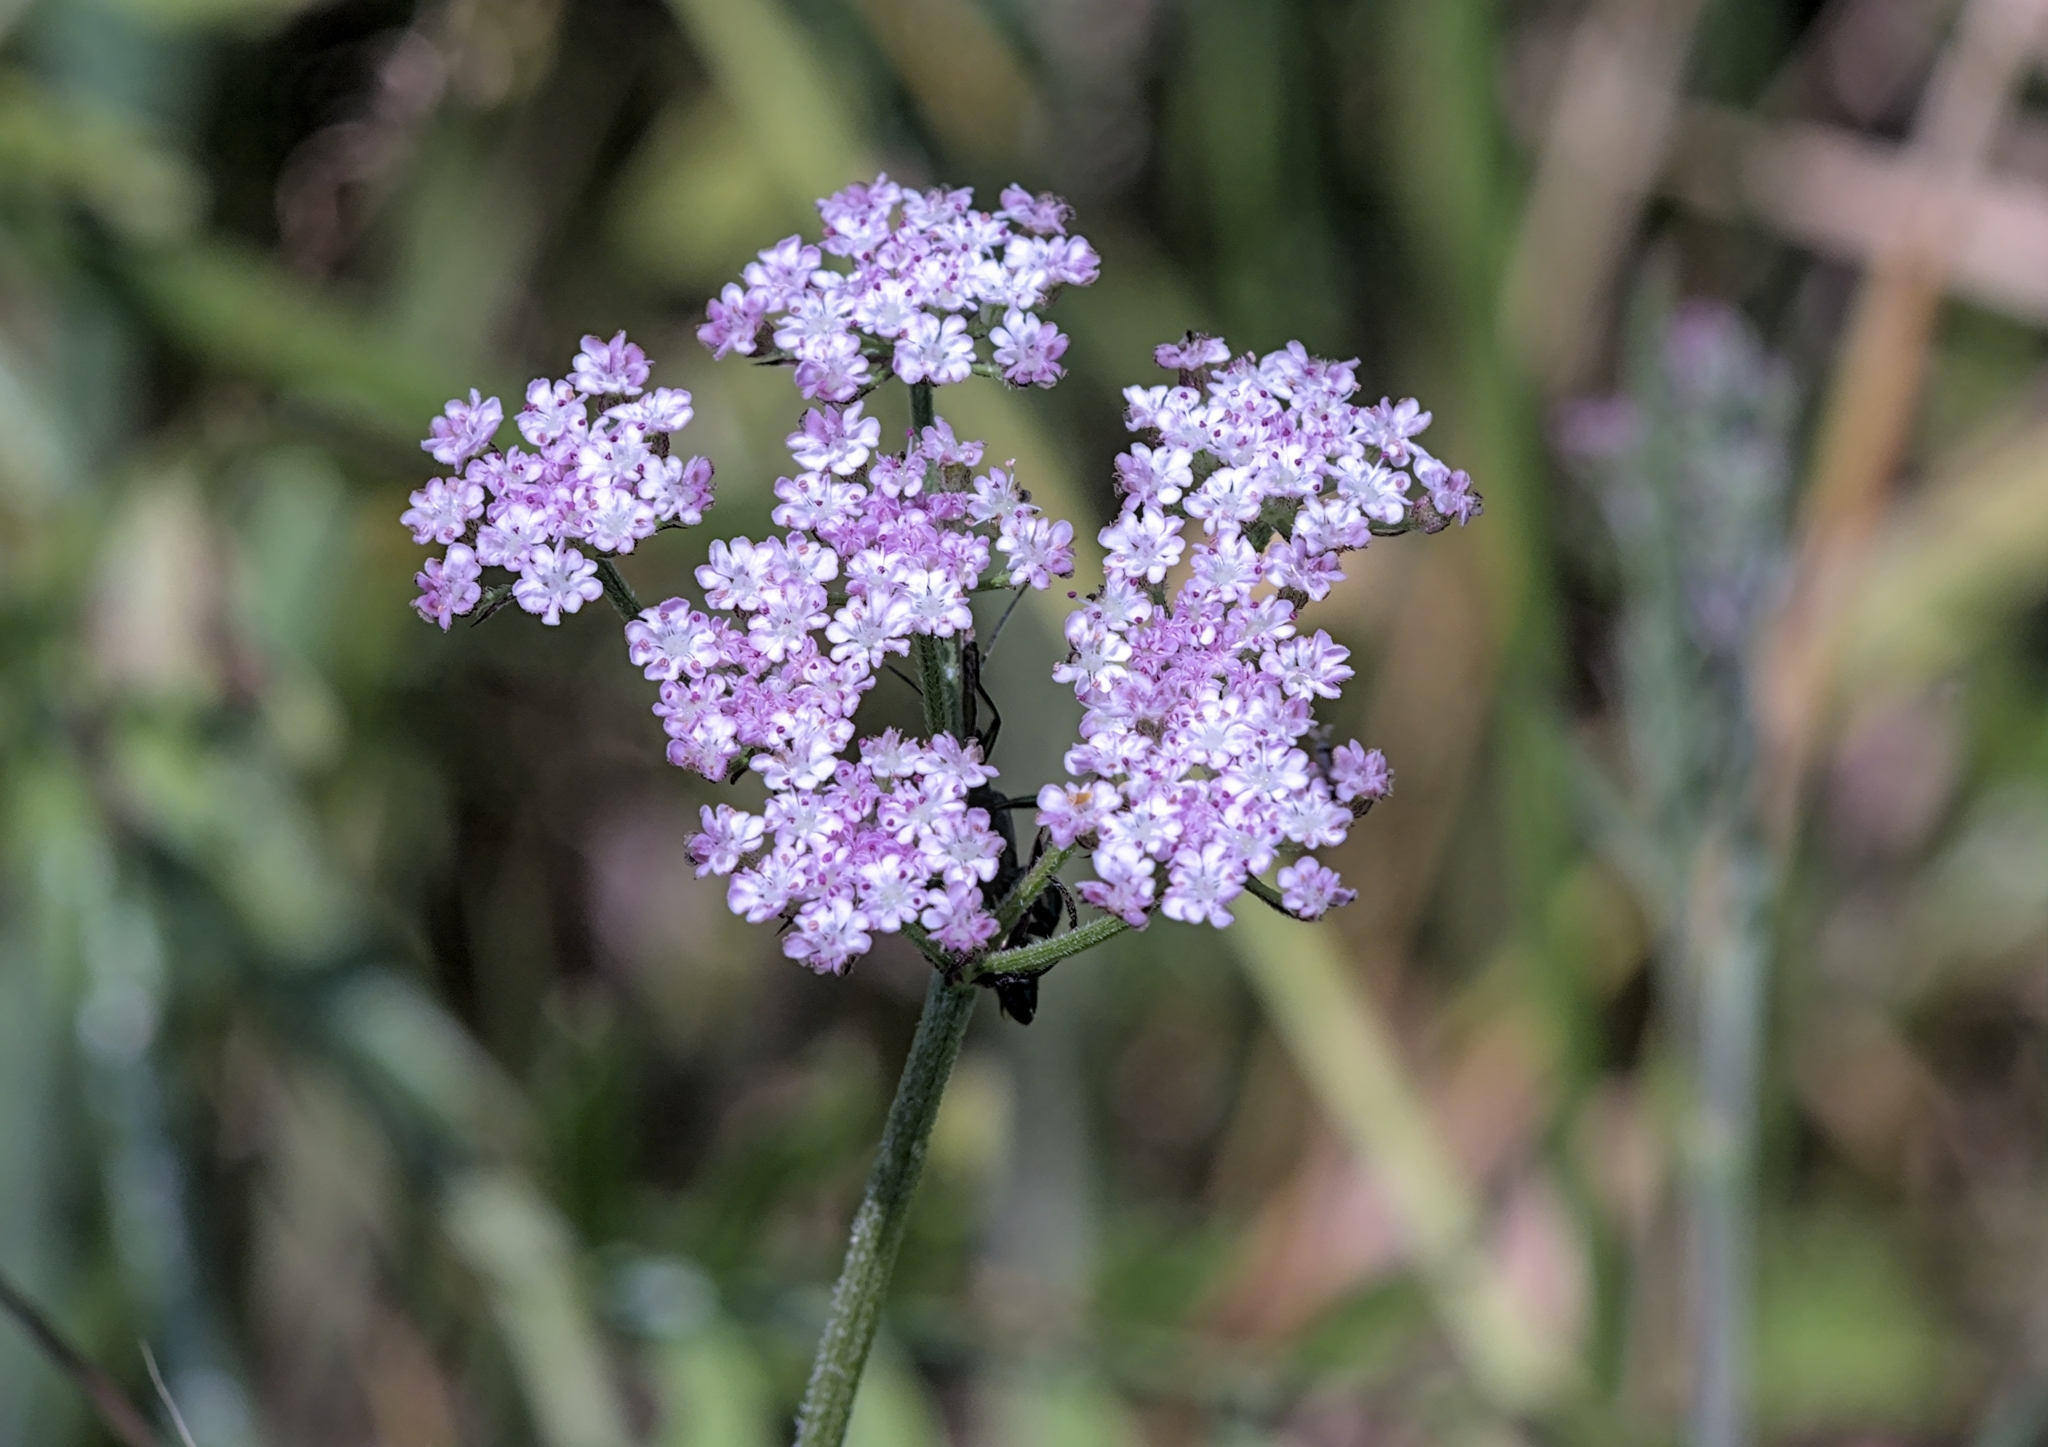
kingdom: Plantae
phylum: Tracheophyta
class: Magnoliopsida
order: Apiales
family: Apiaceae
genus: Torilis
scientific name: Torilis japonica
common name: Upright hedge-parsley
